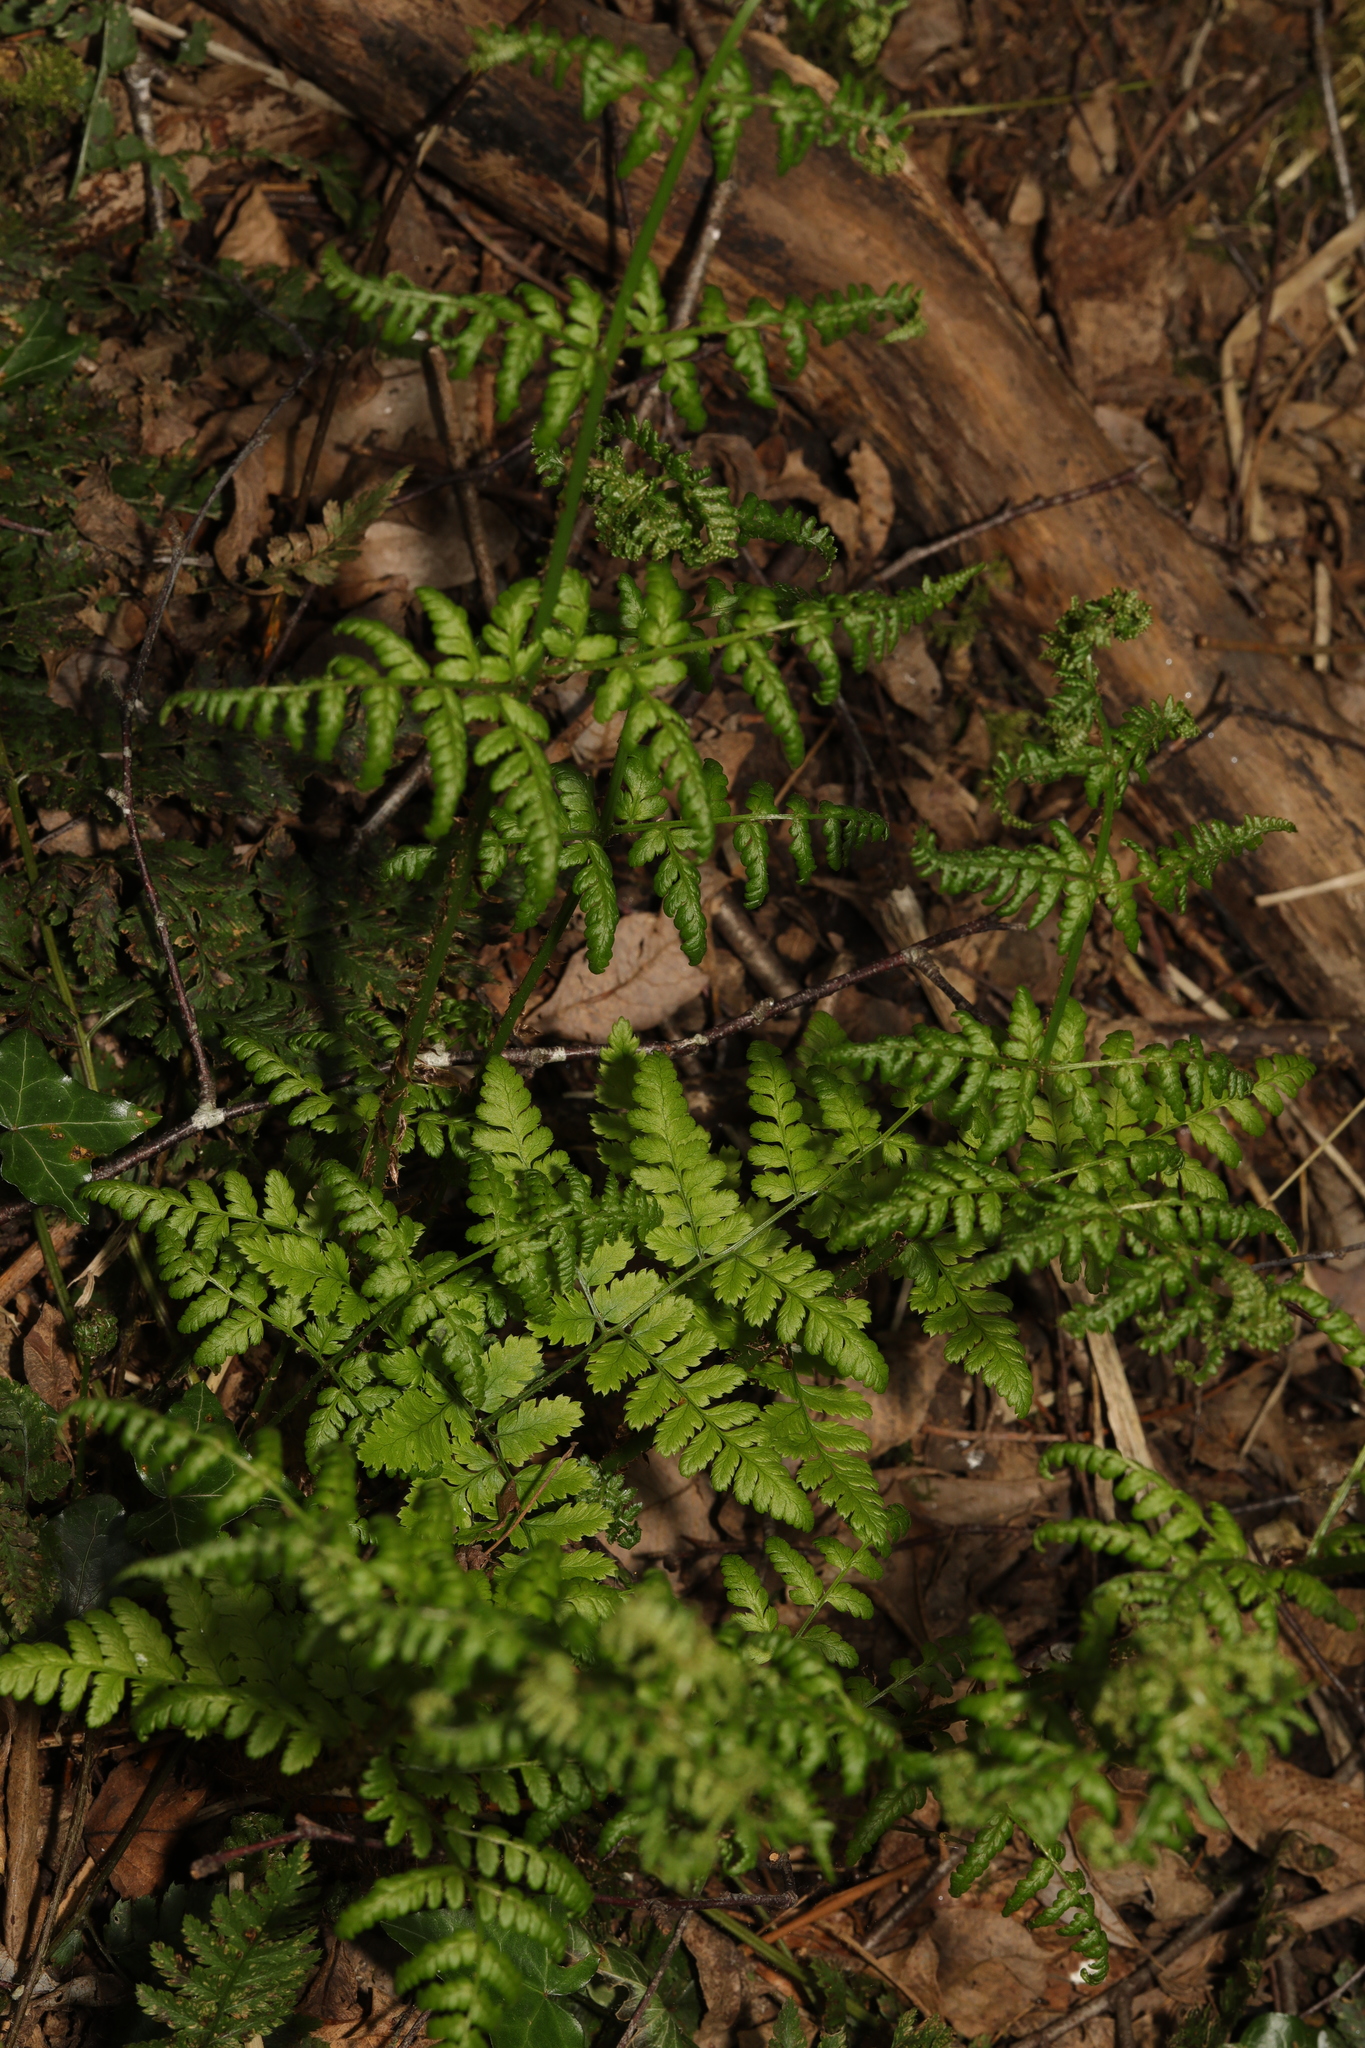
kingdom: Plantae
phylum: Tracheophyta
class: Polypodiopsida
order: Polypodiales
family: Dryopteridaceae
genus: Dryopteris
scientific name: Dryopteris dilatata
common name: Broad buckler-fern
